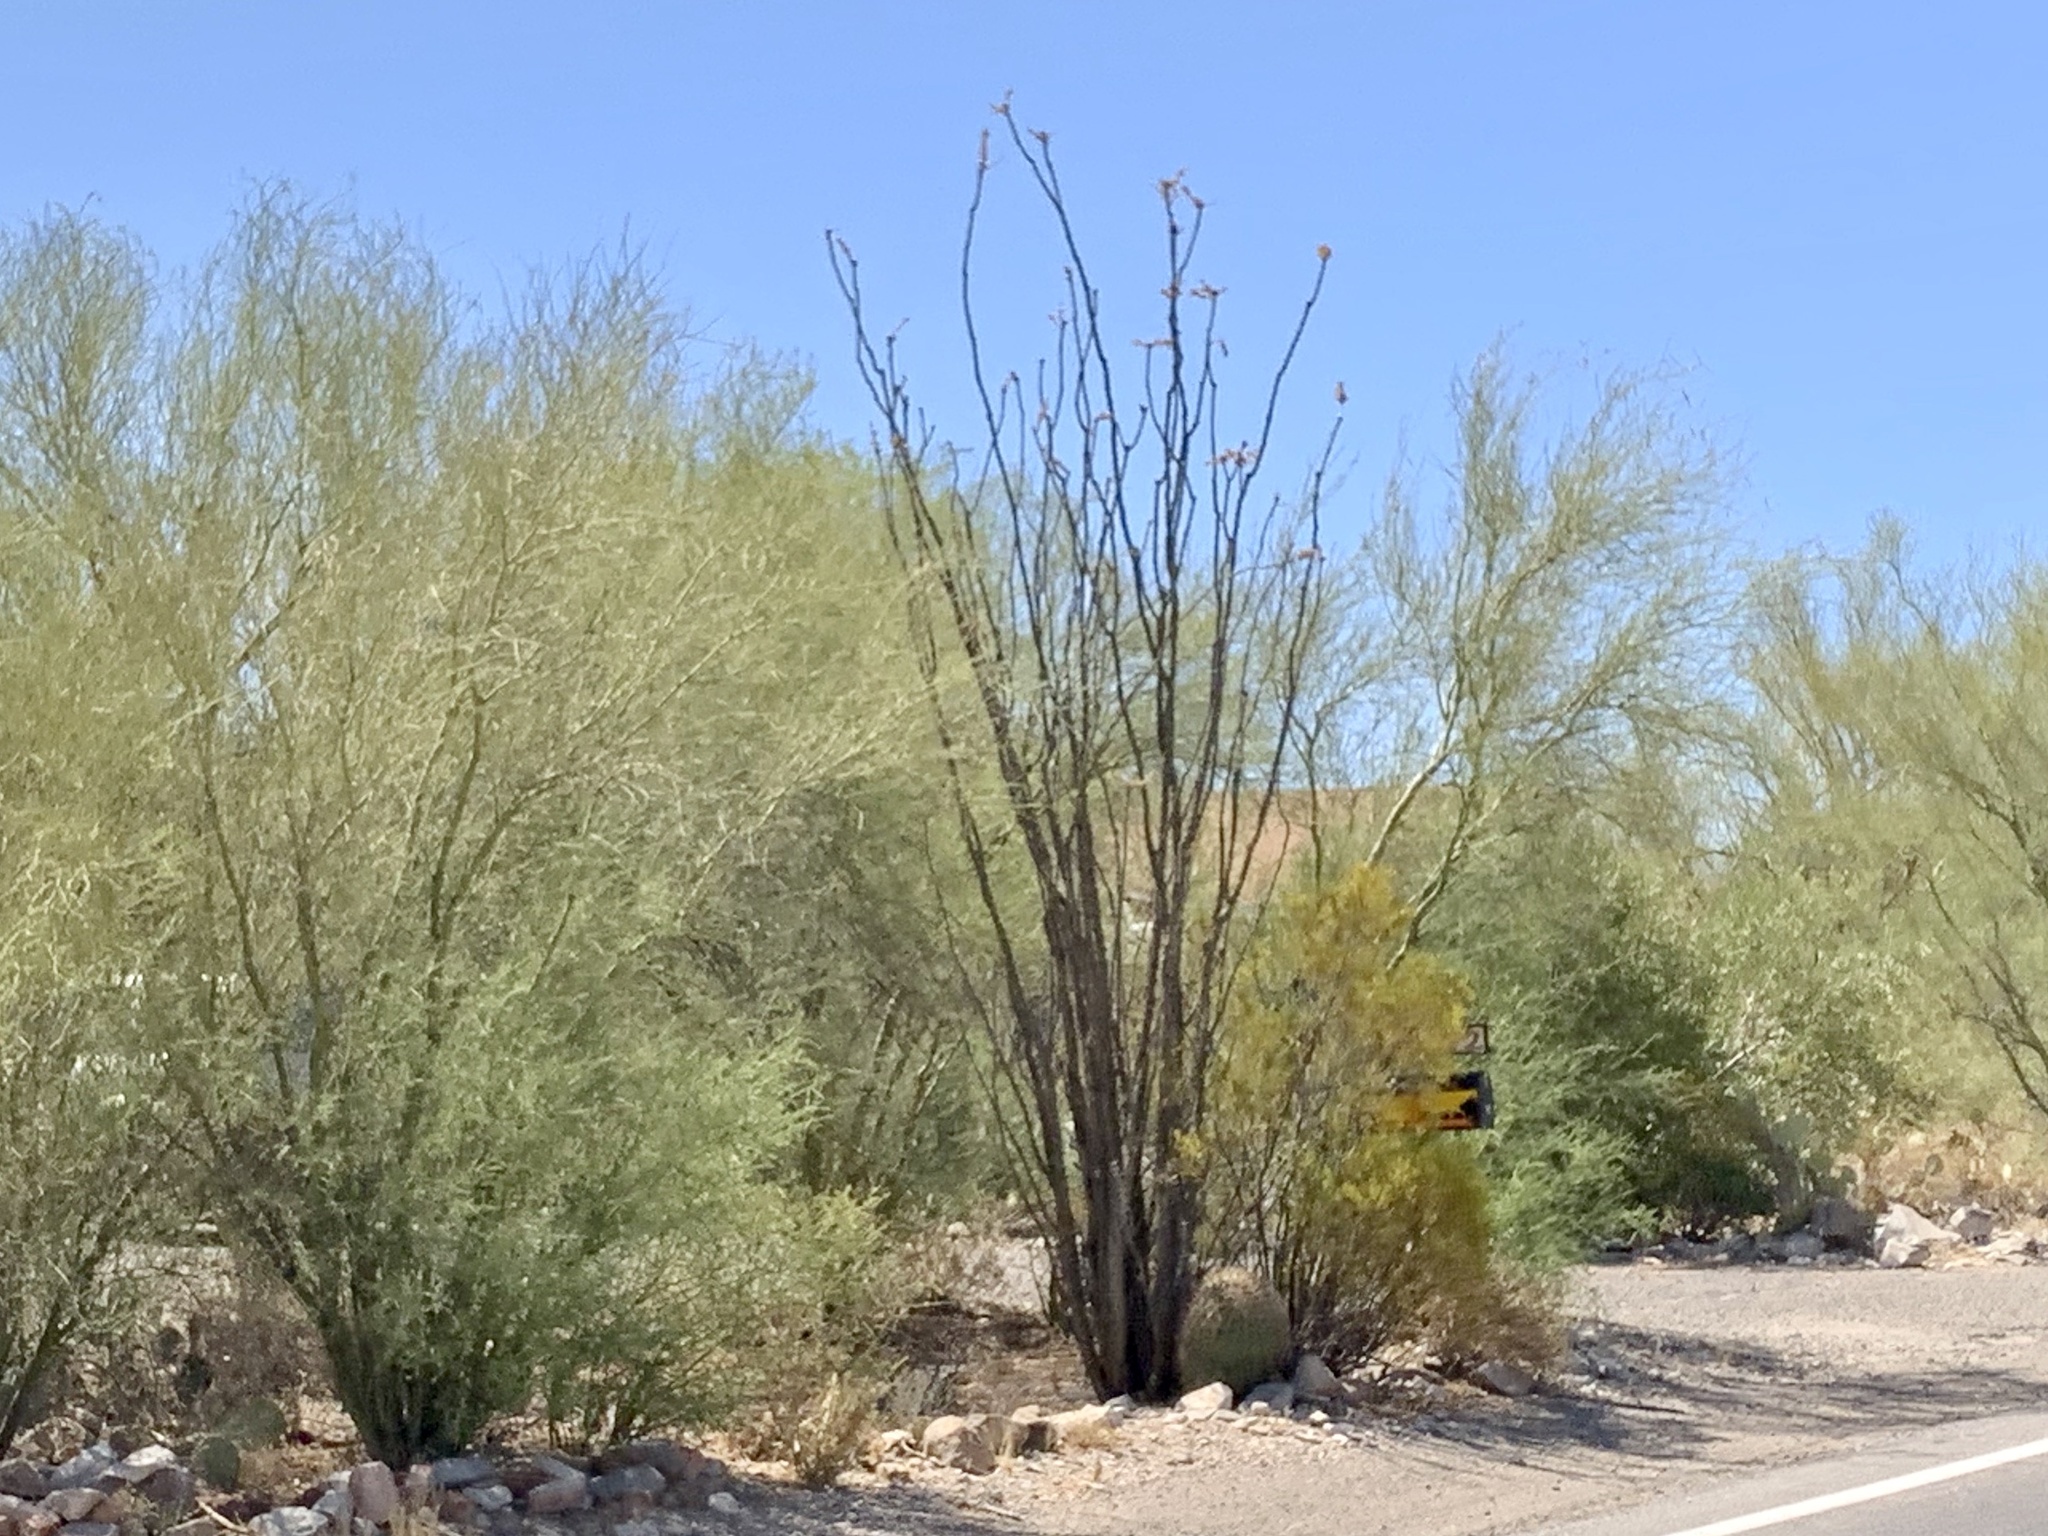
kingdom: Plantae
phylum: Tracheophyta
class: Magnoliopsida
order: Ericales
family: Fouquieriaceae
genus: Fouquieria
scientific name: Fouquieria splendens
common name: Vine-cactus
